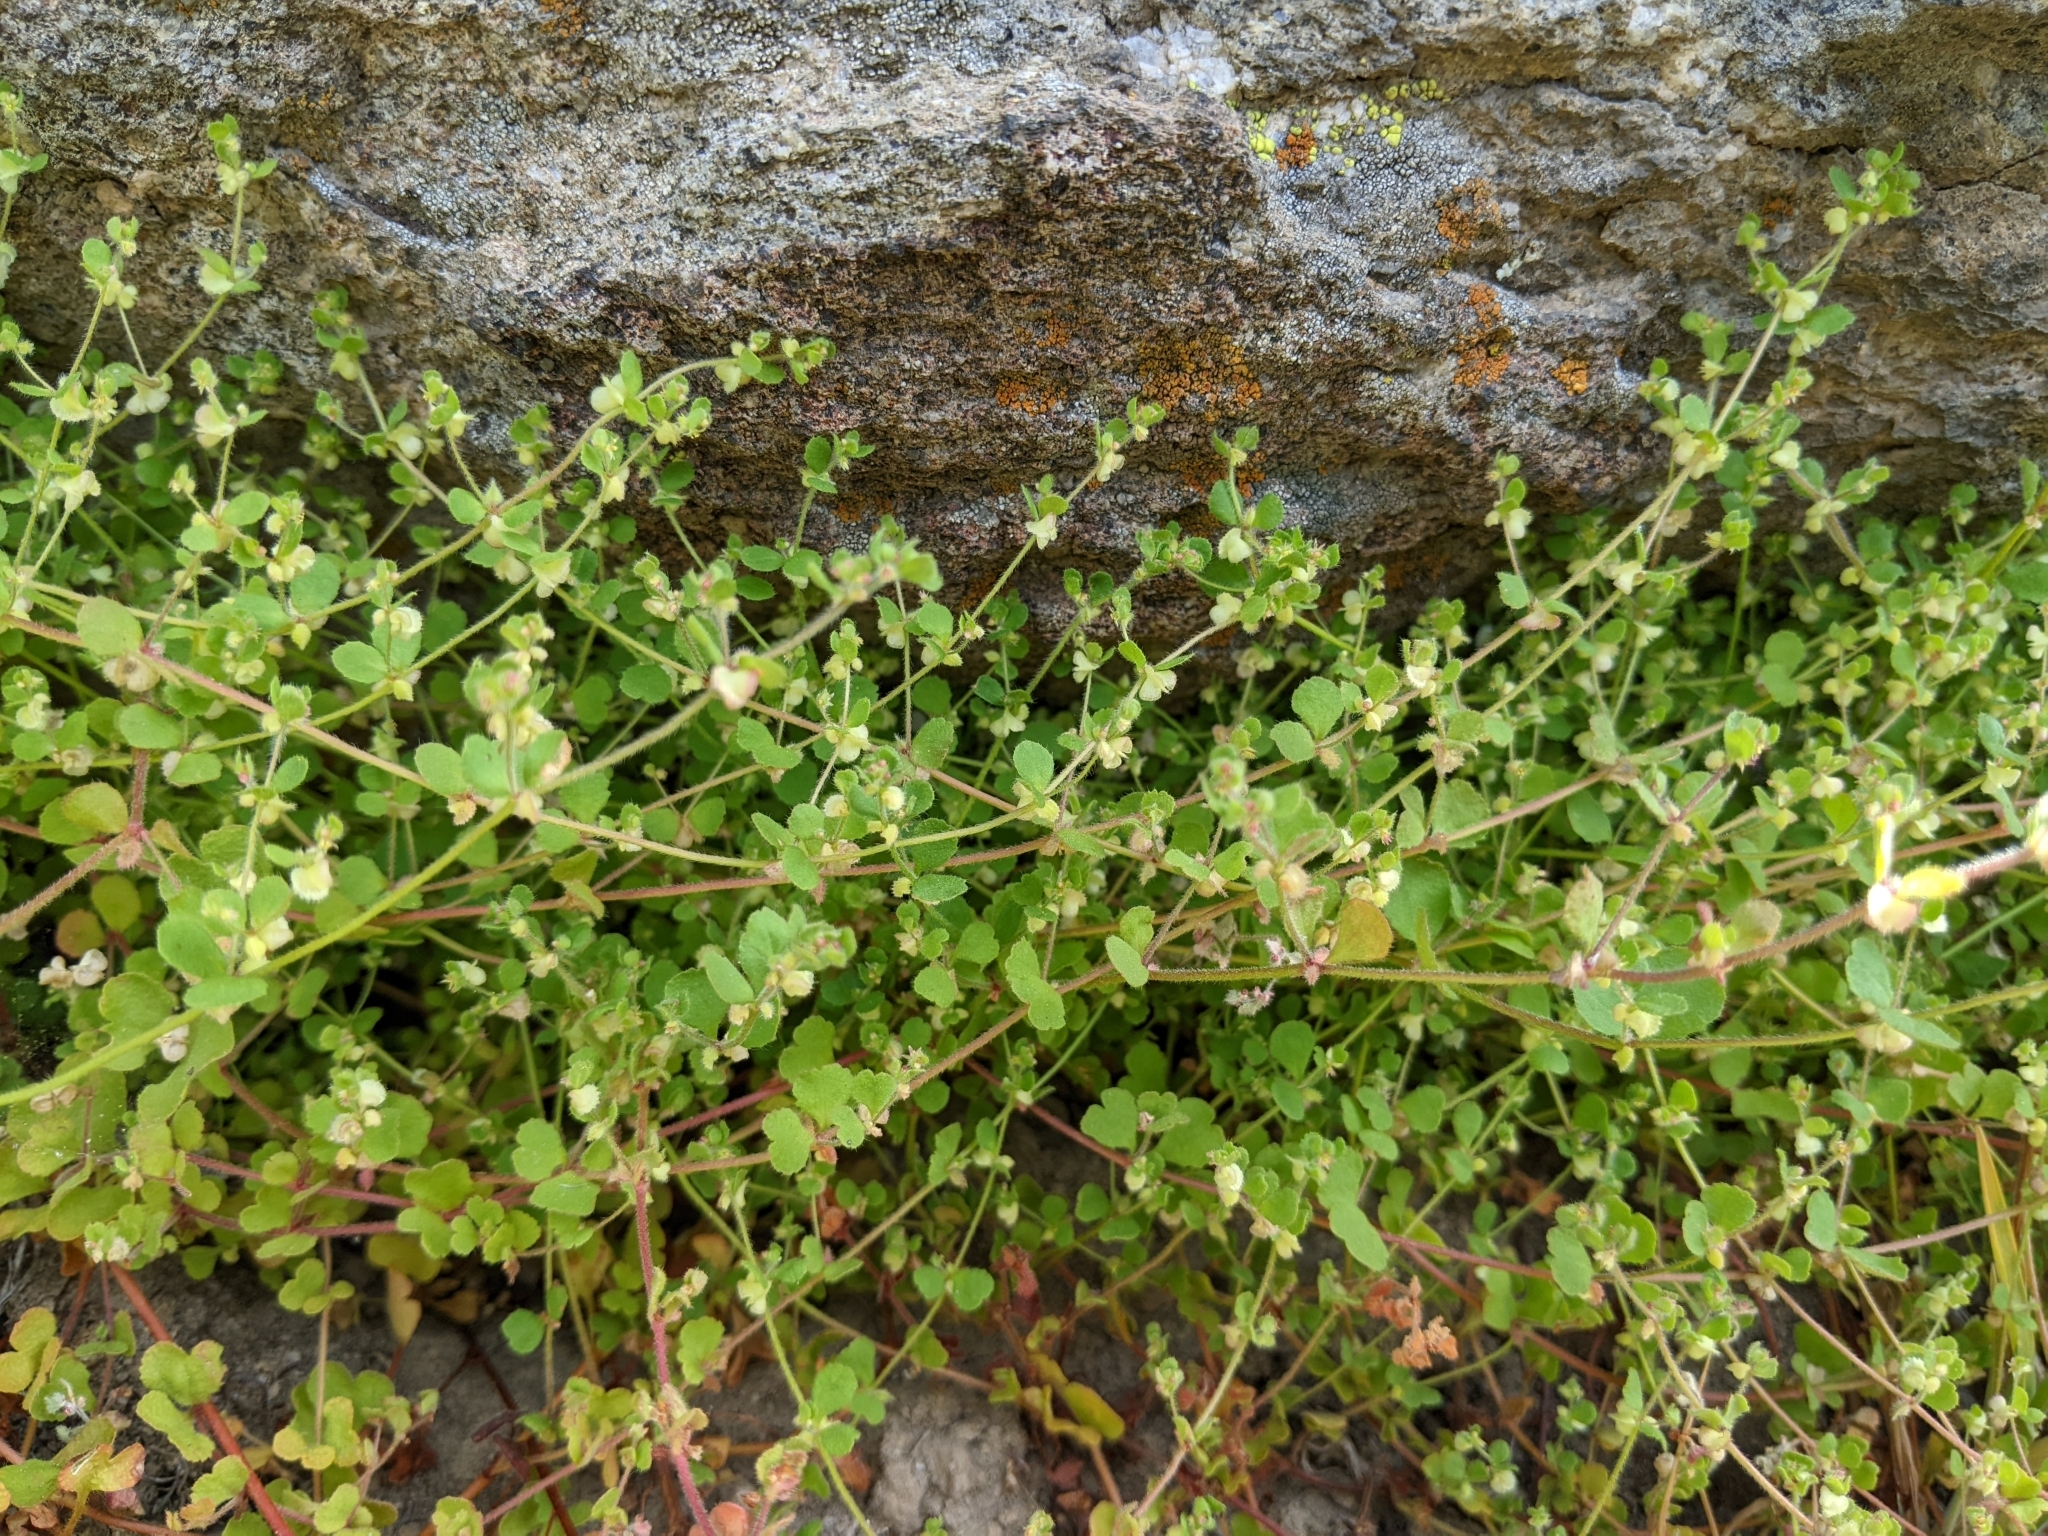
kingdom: Plantae
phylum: Tracheophyta
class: Magnoliopsida
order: Caryophyllales
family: Polygonaceae
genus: Pterostegia
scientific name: Pterostegia drymarioides
